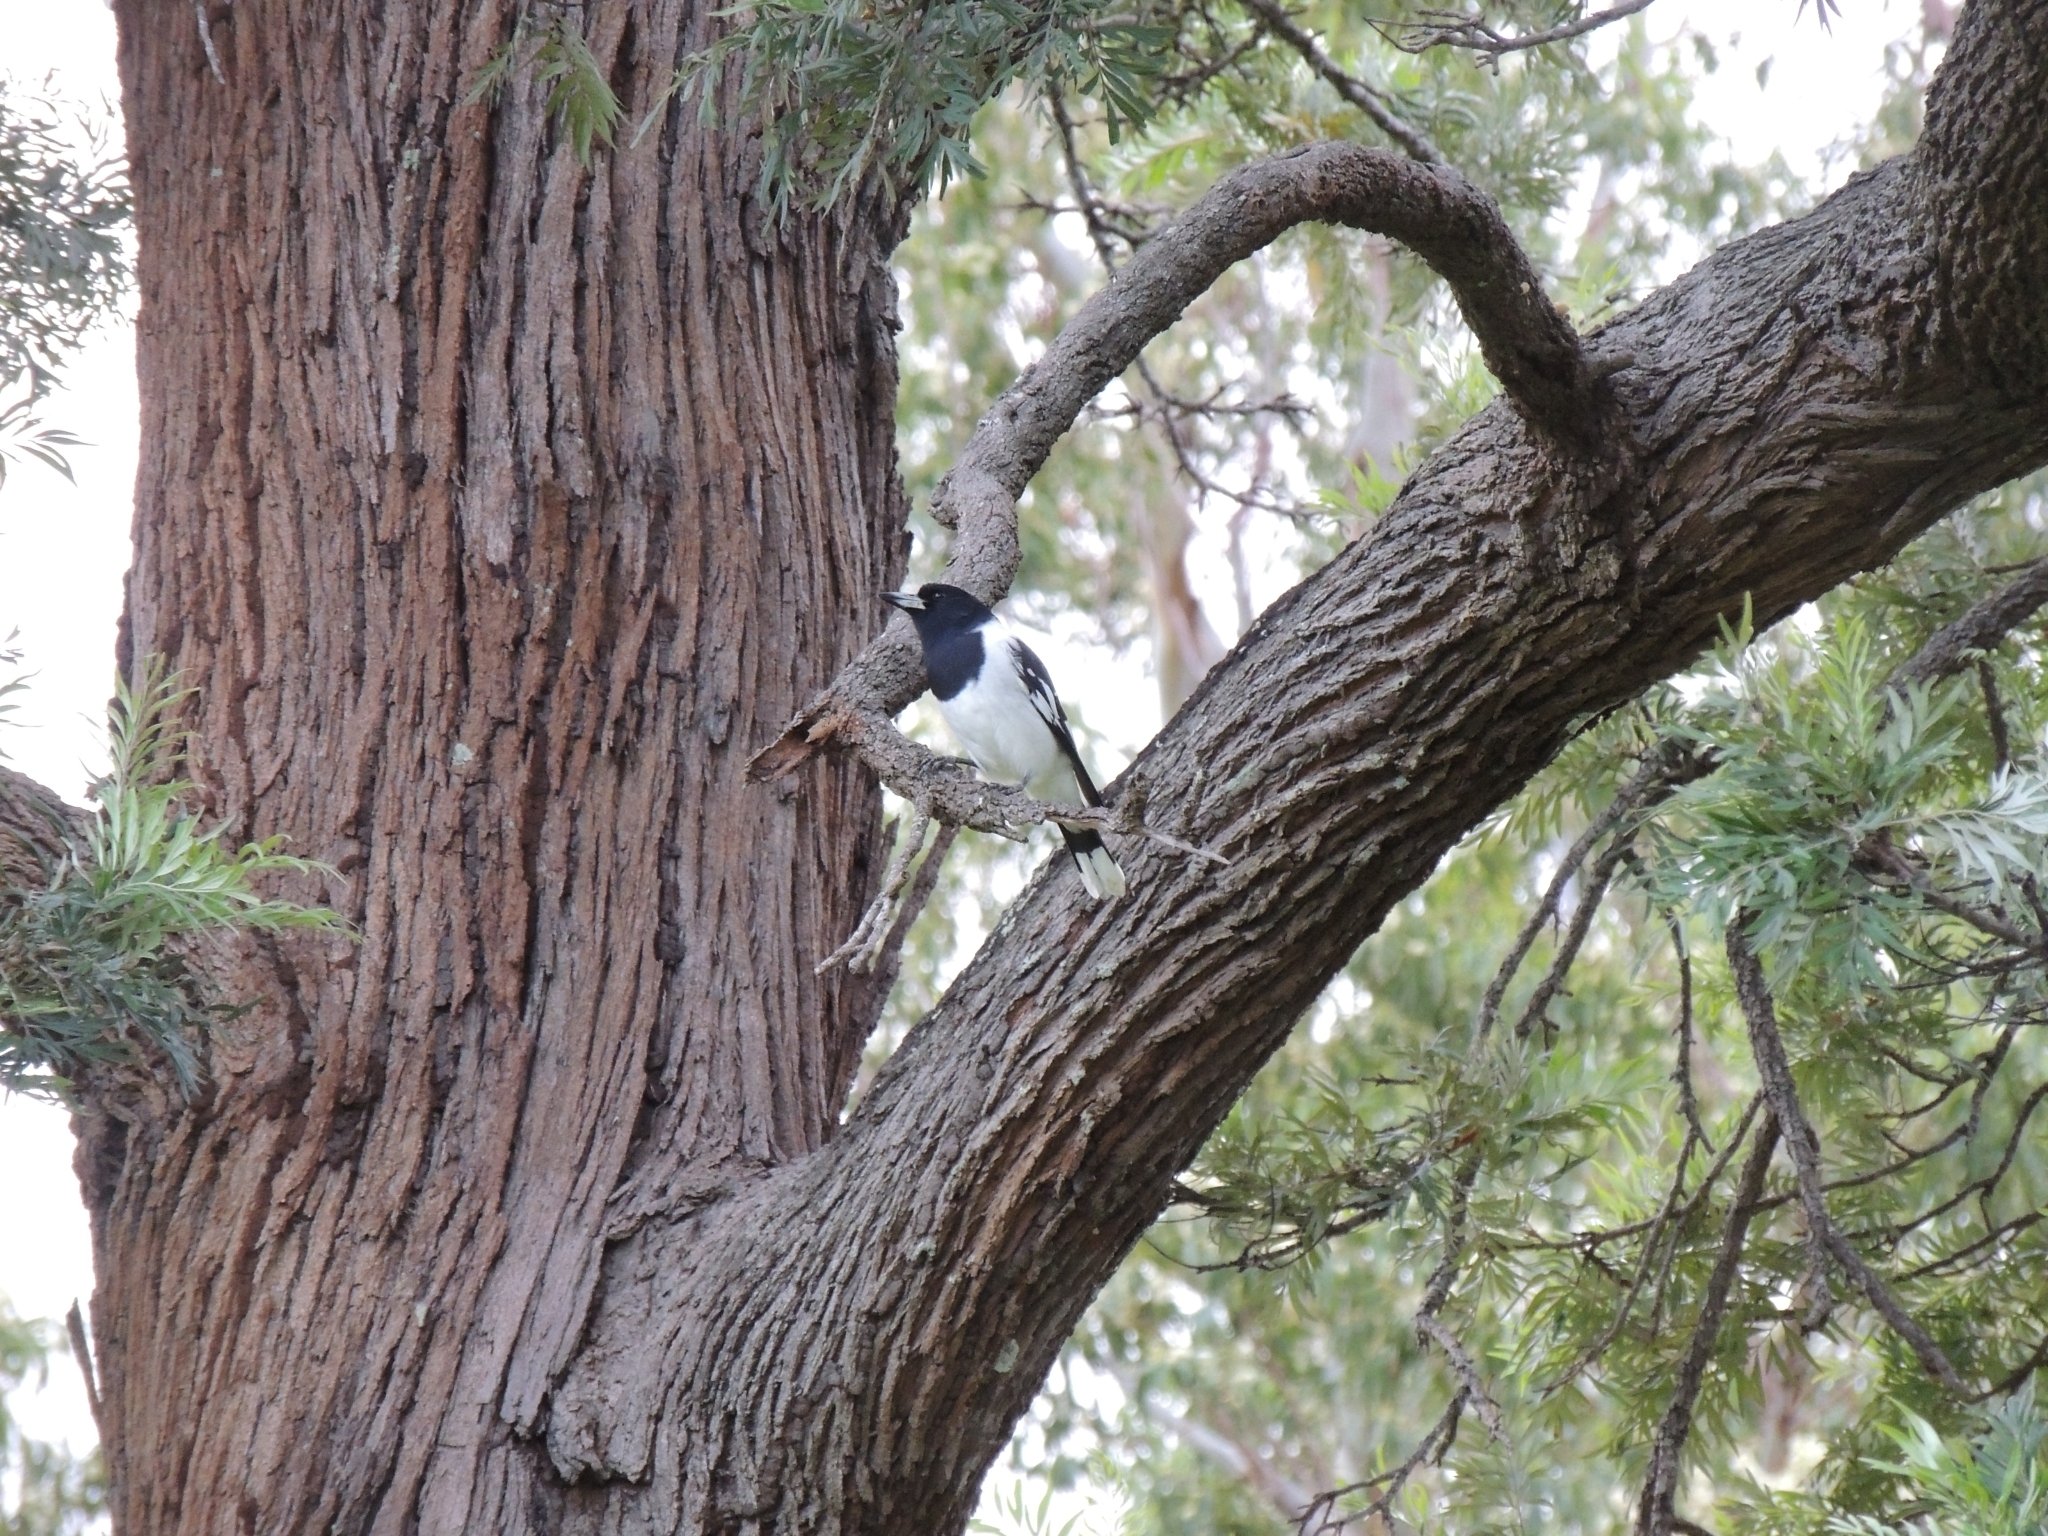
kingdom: Animalia
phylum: Chordata
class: Aves
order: Passeriformes
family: Cracticidae
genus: Cracticus
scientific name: Cracticus nigrogularis
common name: Pied butcherbird
